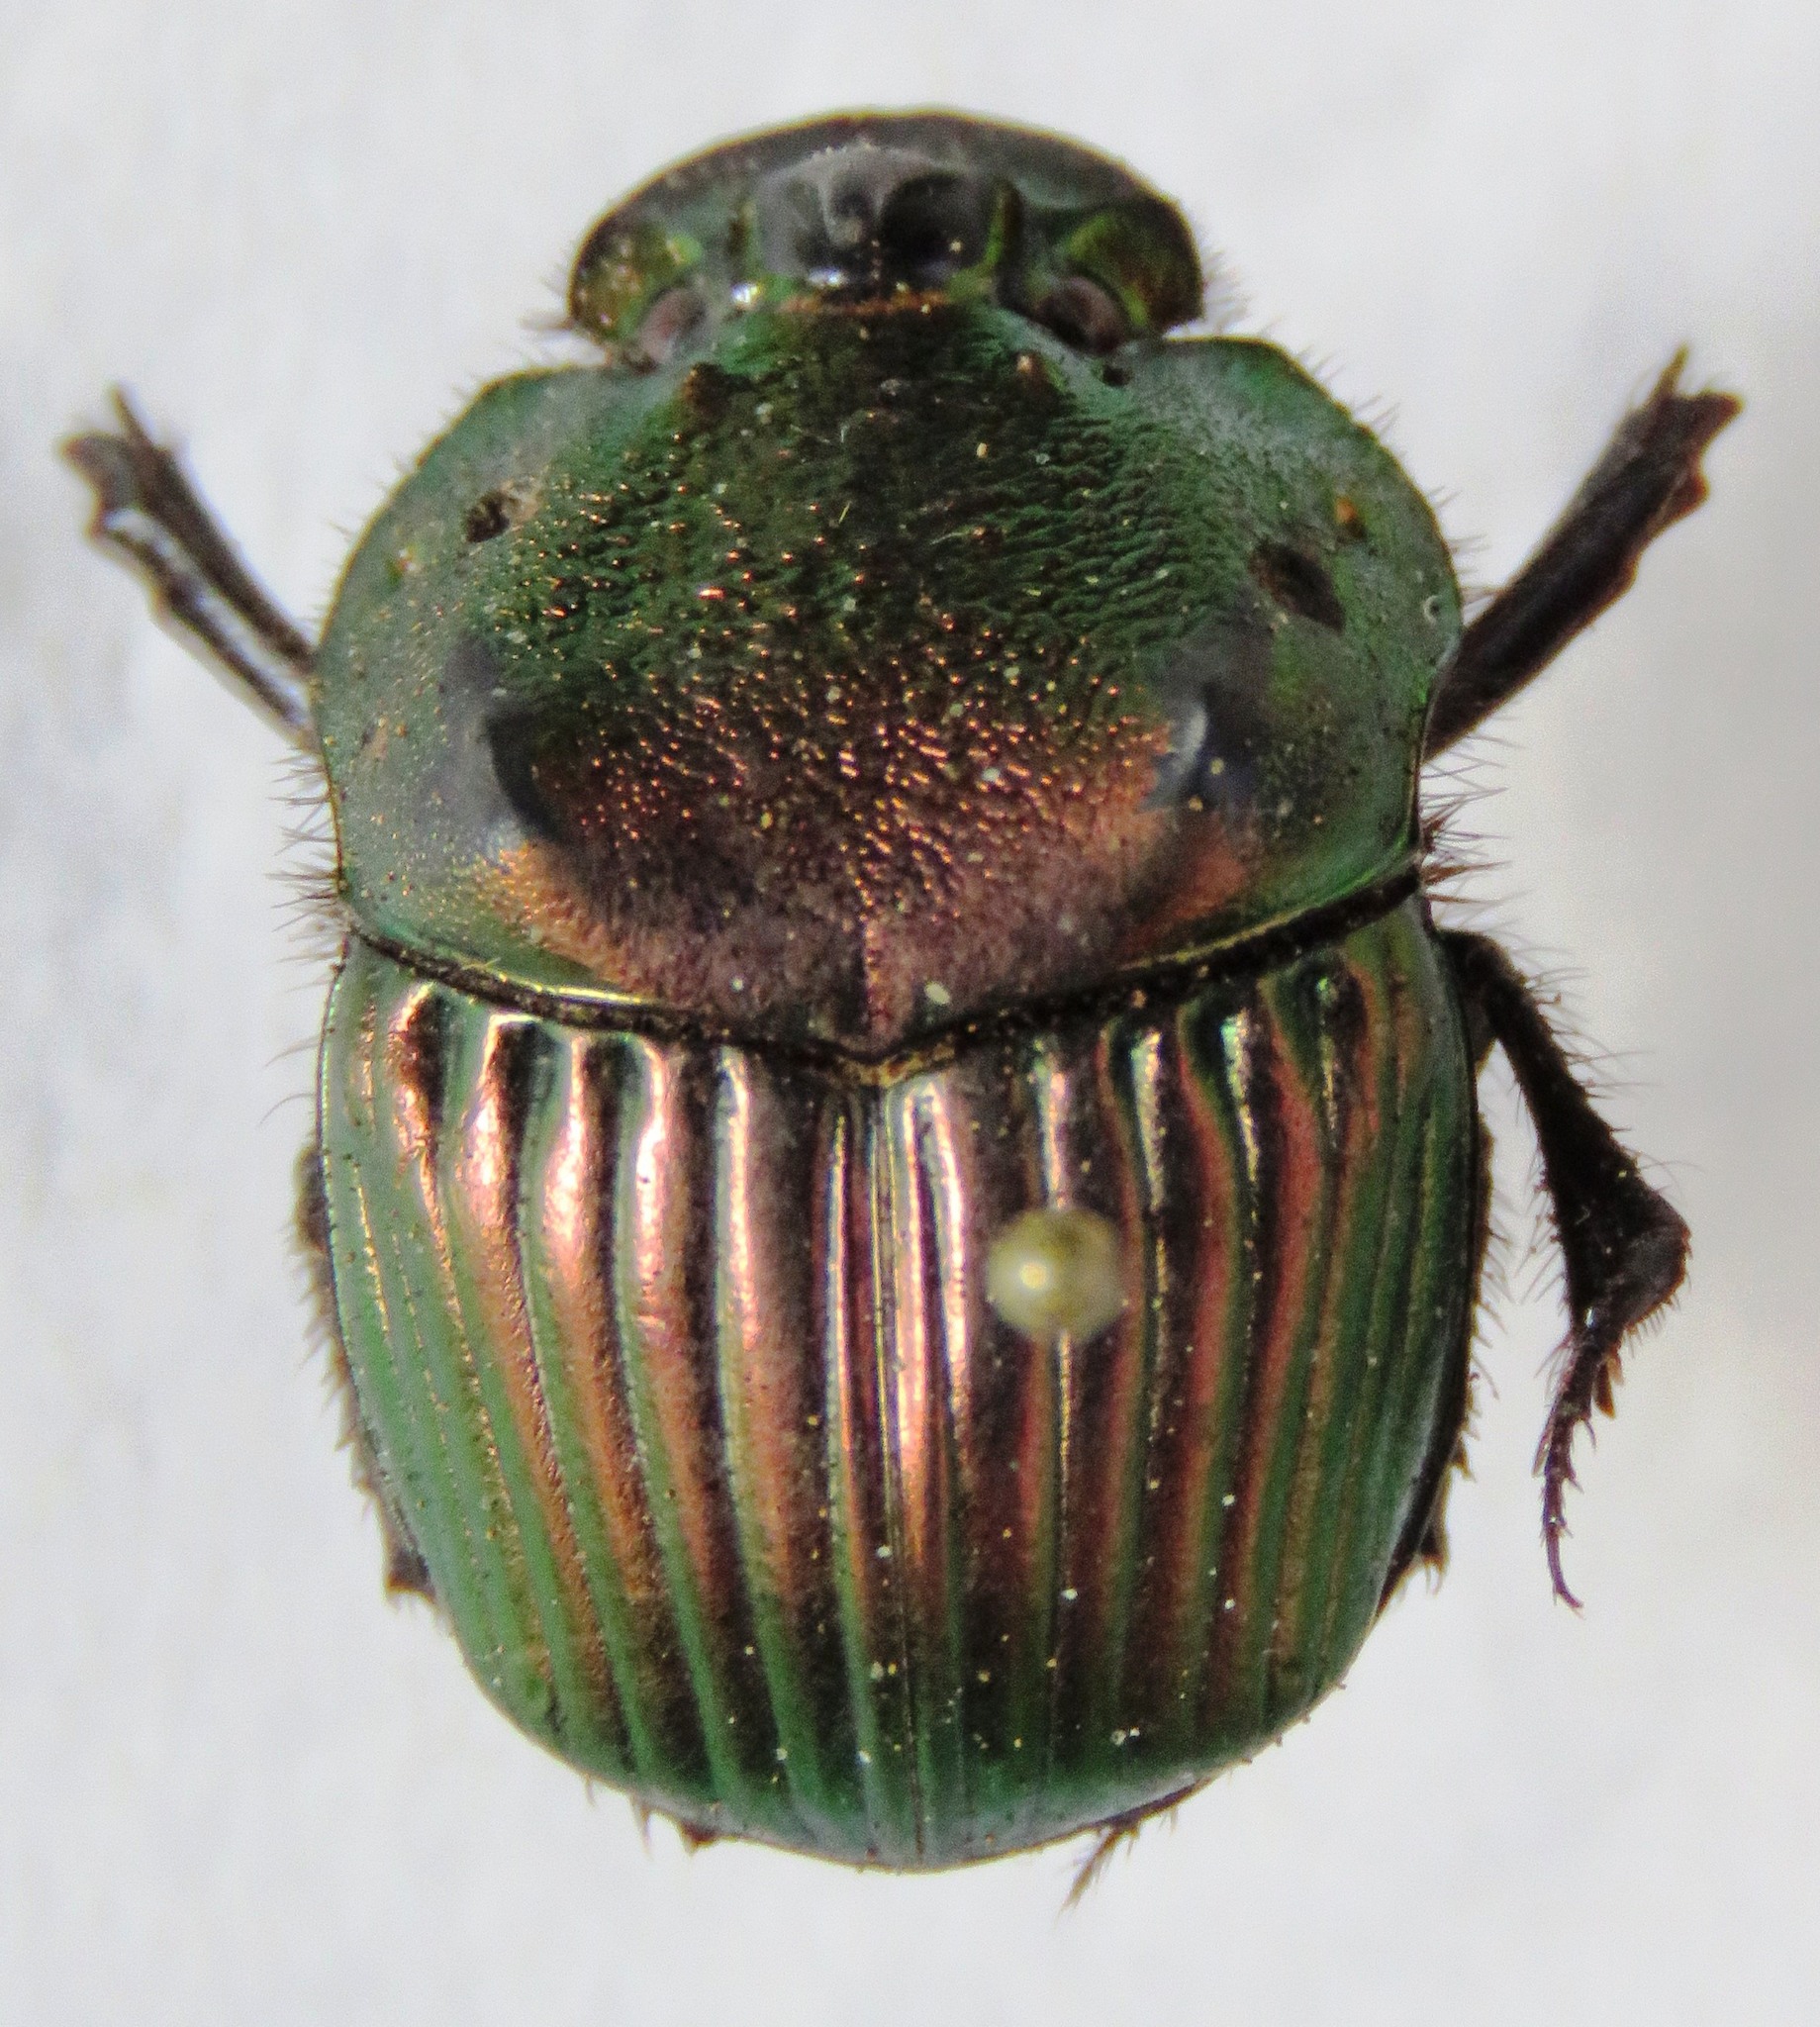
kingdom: Animalia
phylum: Arthropoda
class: Insecta
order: Coleoptera
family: Scarabaeidae
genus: Phanaeus
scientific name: Phanaeus wagneri
